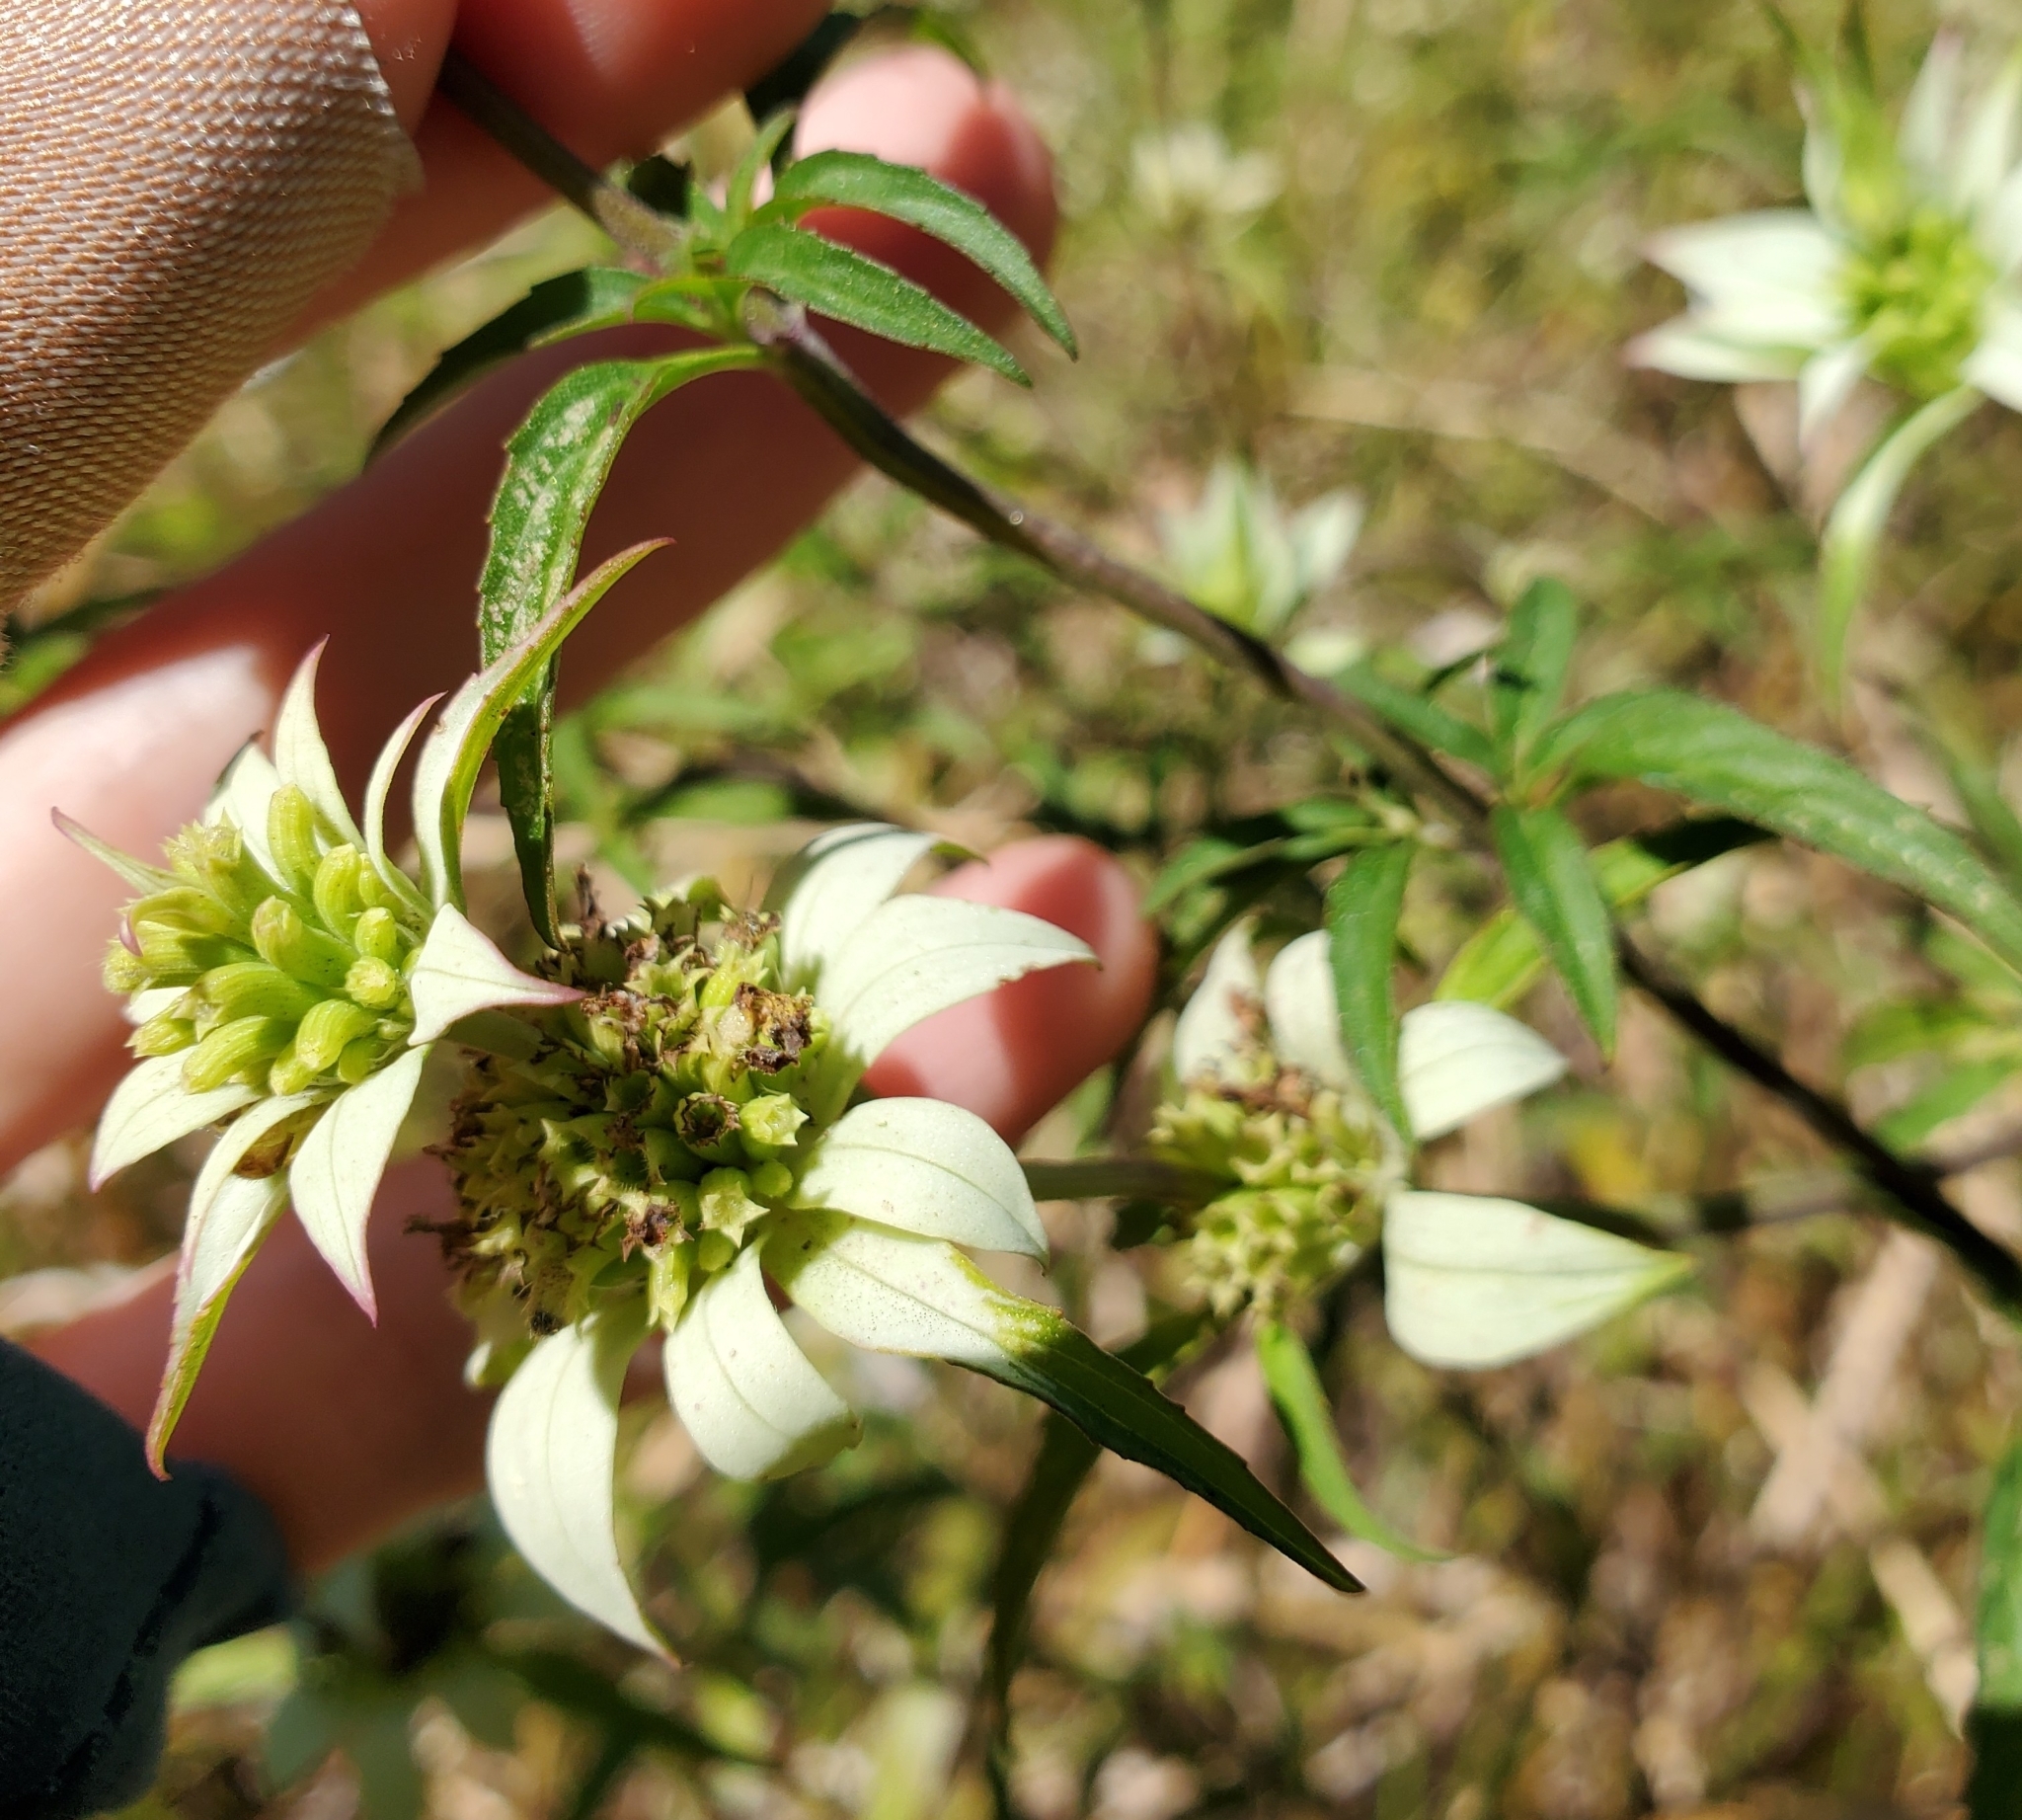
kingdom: Plantae
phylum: Tracheophyta
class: Magnoliopsida
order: Lamiales
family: Lamiaceae
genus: Monarda
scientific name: Monarda punctata
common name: Dotted monarda
